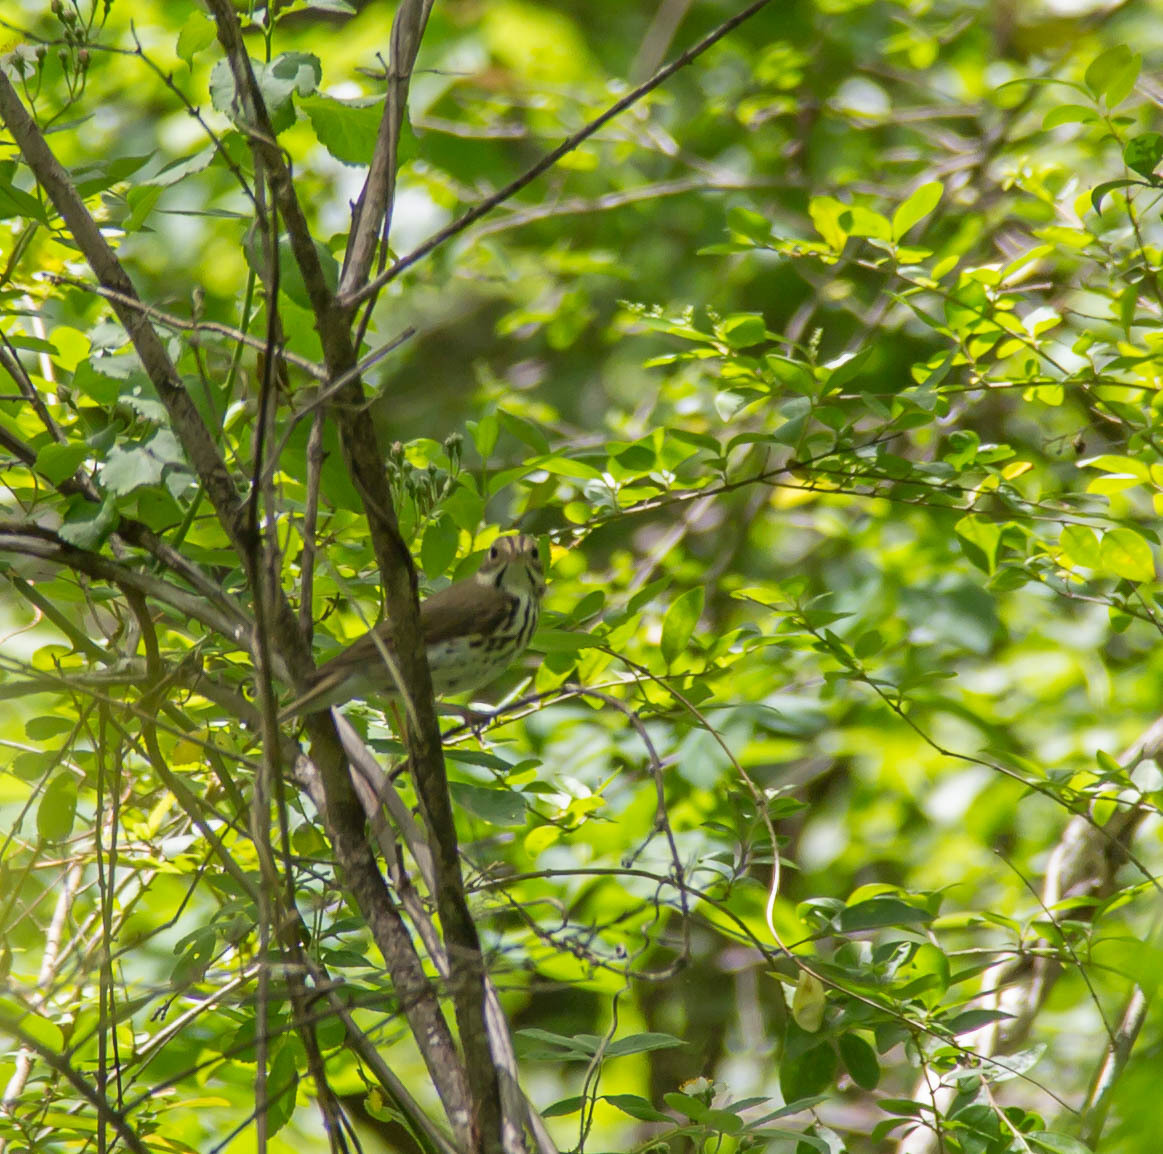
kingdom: Animalia
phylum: Chordata
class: Aves
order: Passeriformes
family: Parulidae
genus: Seiurus
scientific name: Seiurus aurocapilla
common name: Ovenbird
